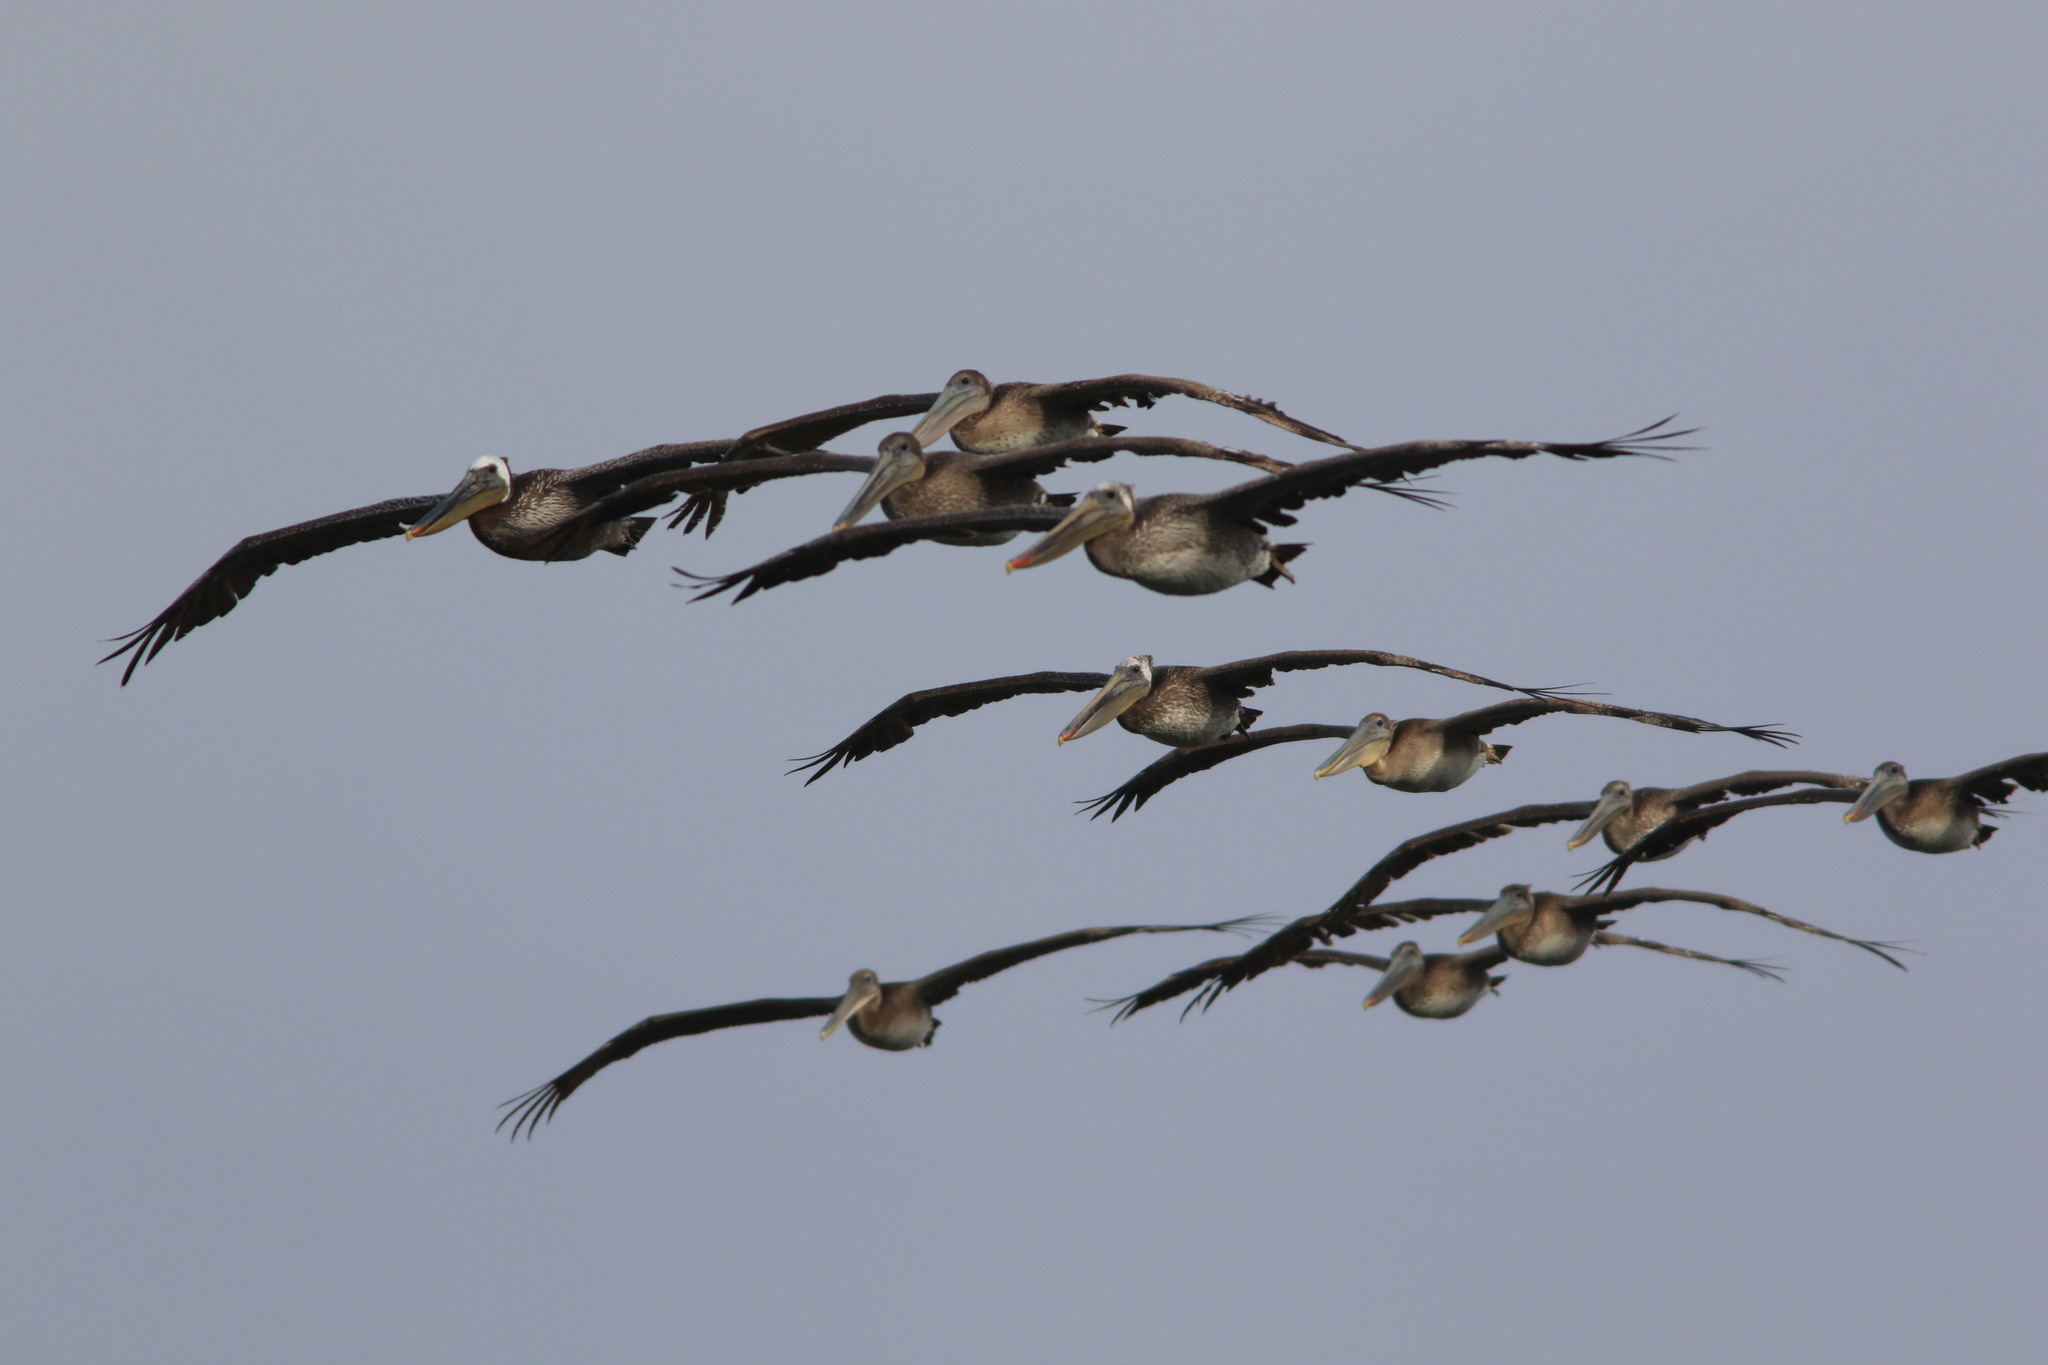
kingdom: Animalia
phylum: Chordata
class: Aves
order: Pelecaniformes
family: Pelecanidae
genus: Pelecanus
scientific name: Pelecanus occidentalis
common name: Brown pelican
